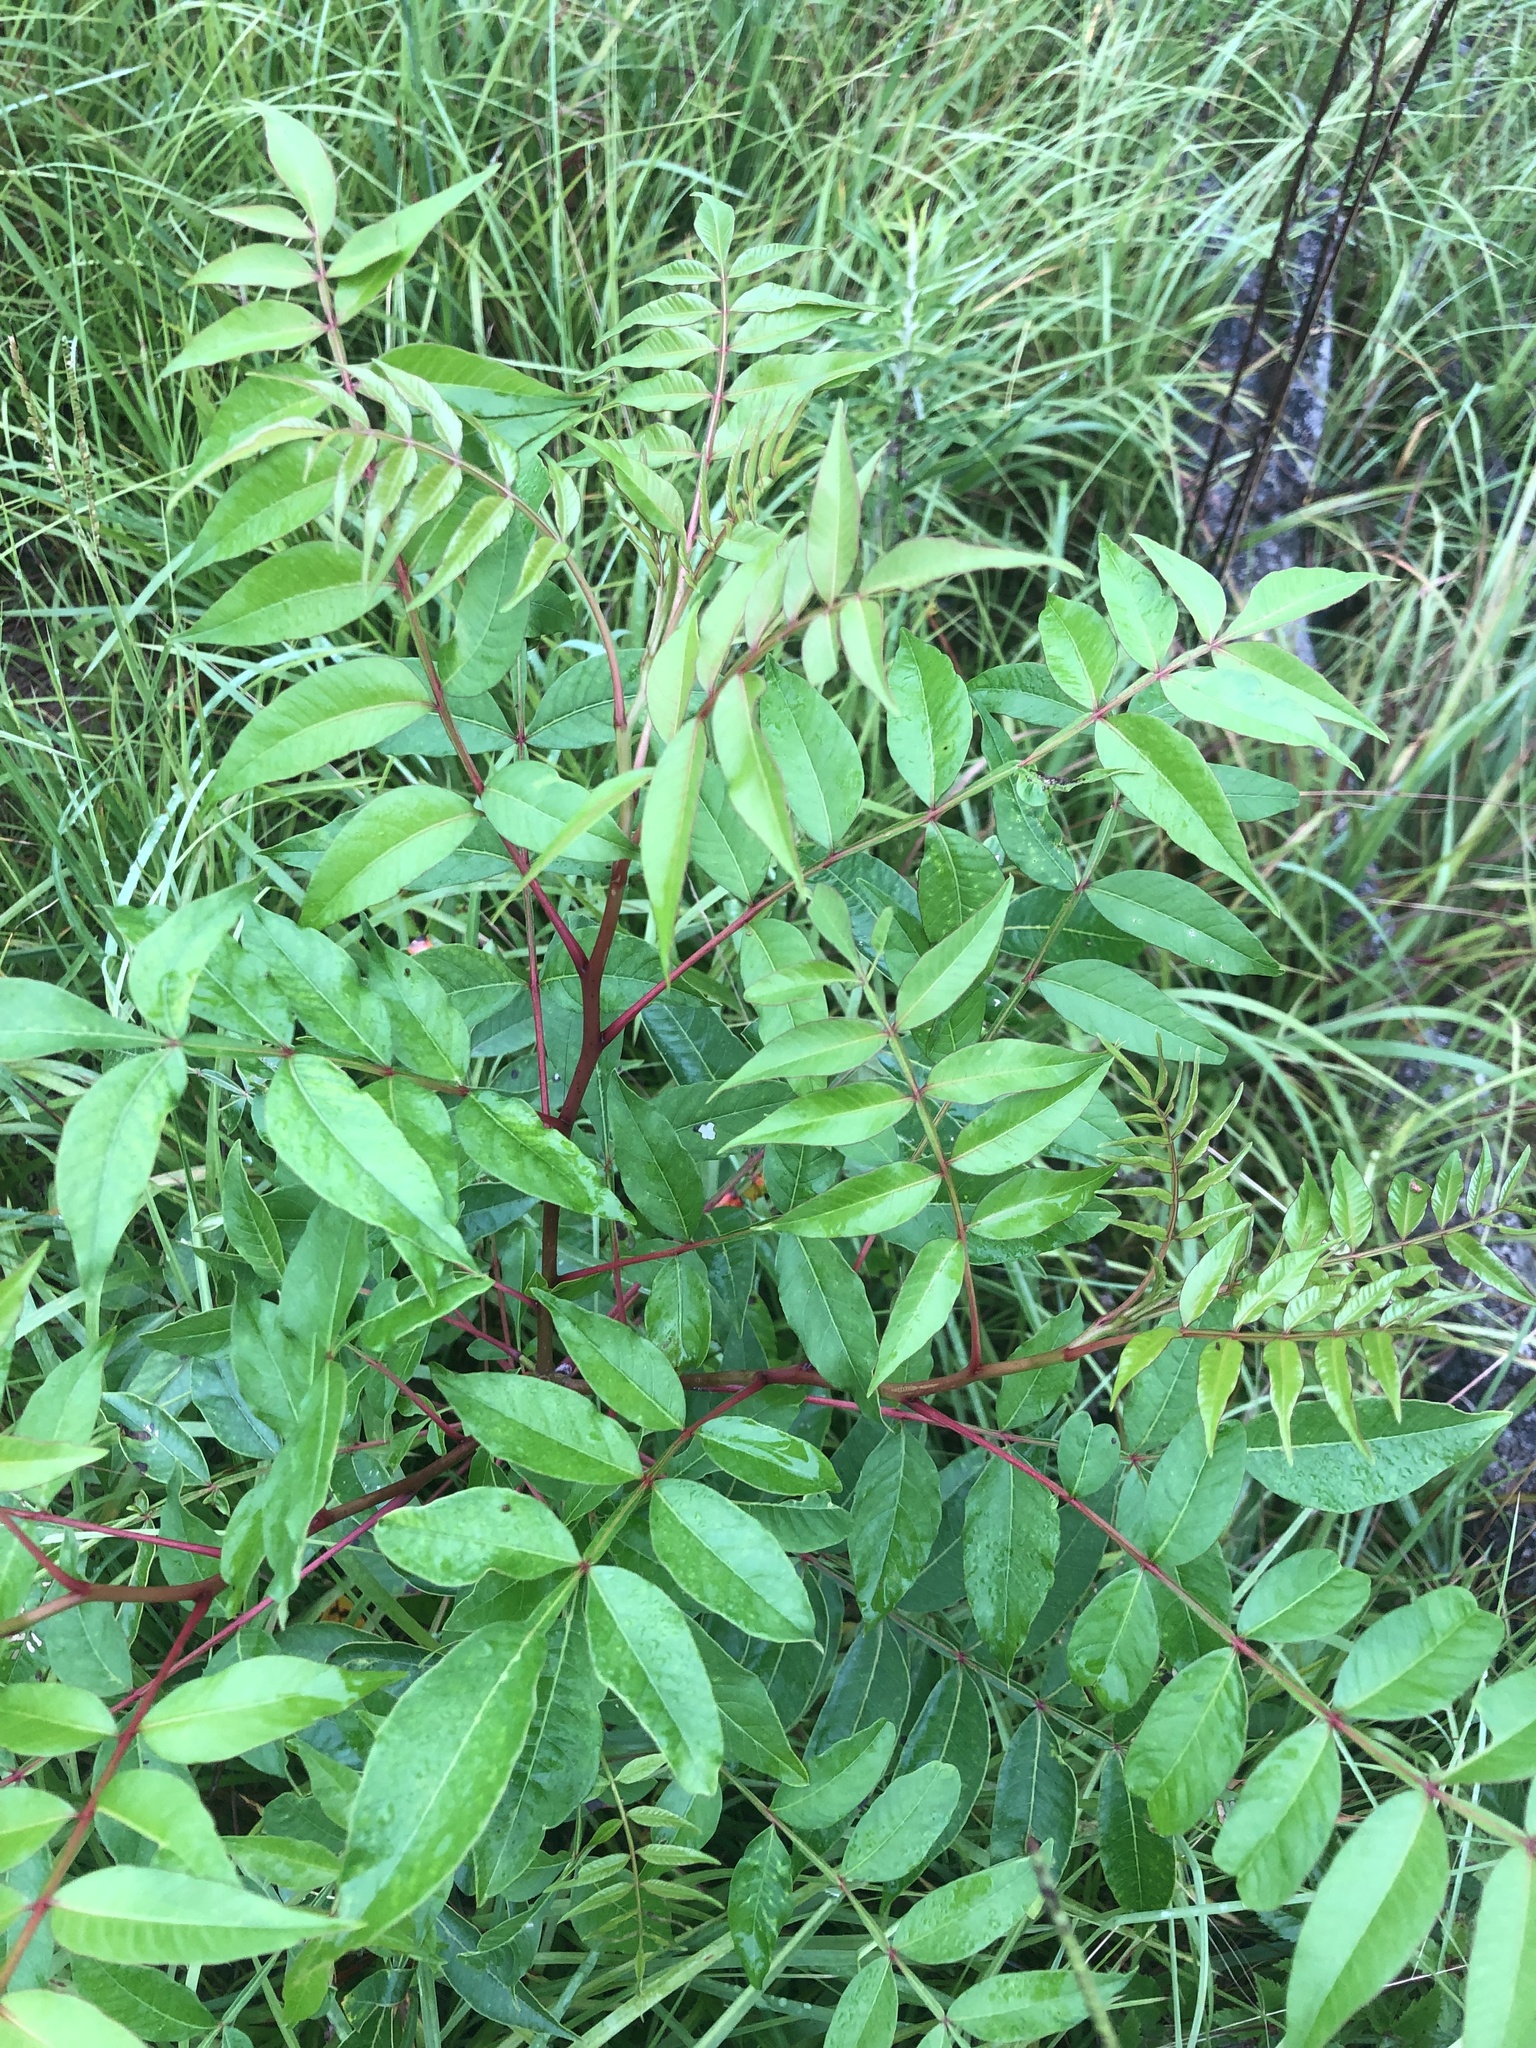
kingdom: Plantae
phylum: Tracheophyta
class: Magnoliopsida
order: Sapindales
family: Anacardiaceae
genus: Rhus
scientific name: Rhus copallina
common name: Shining sumac
